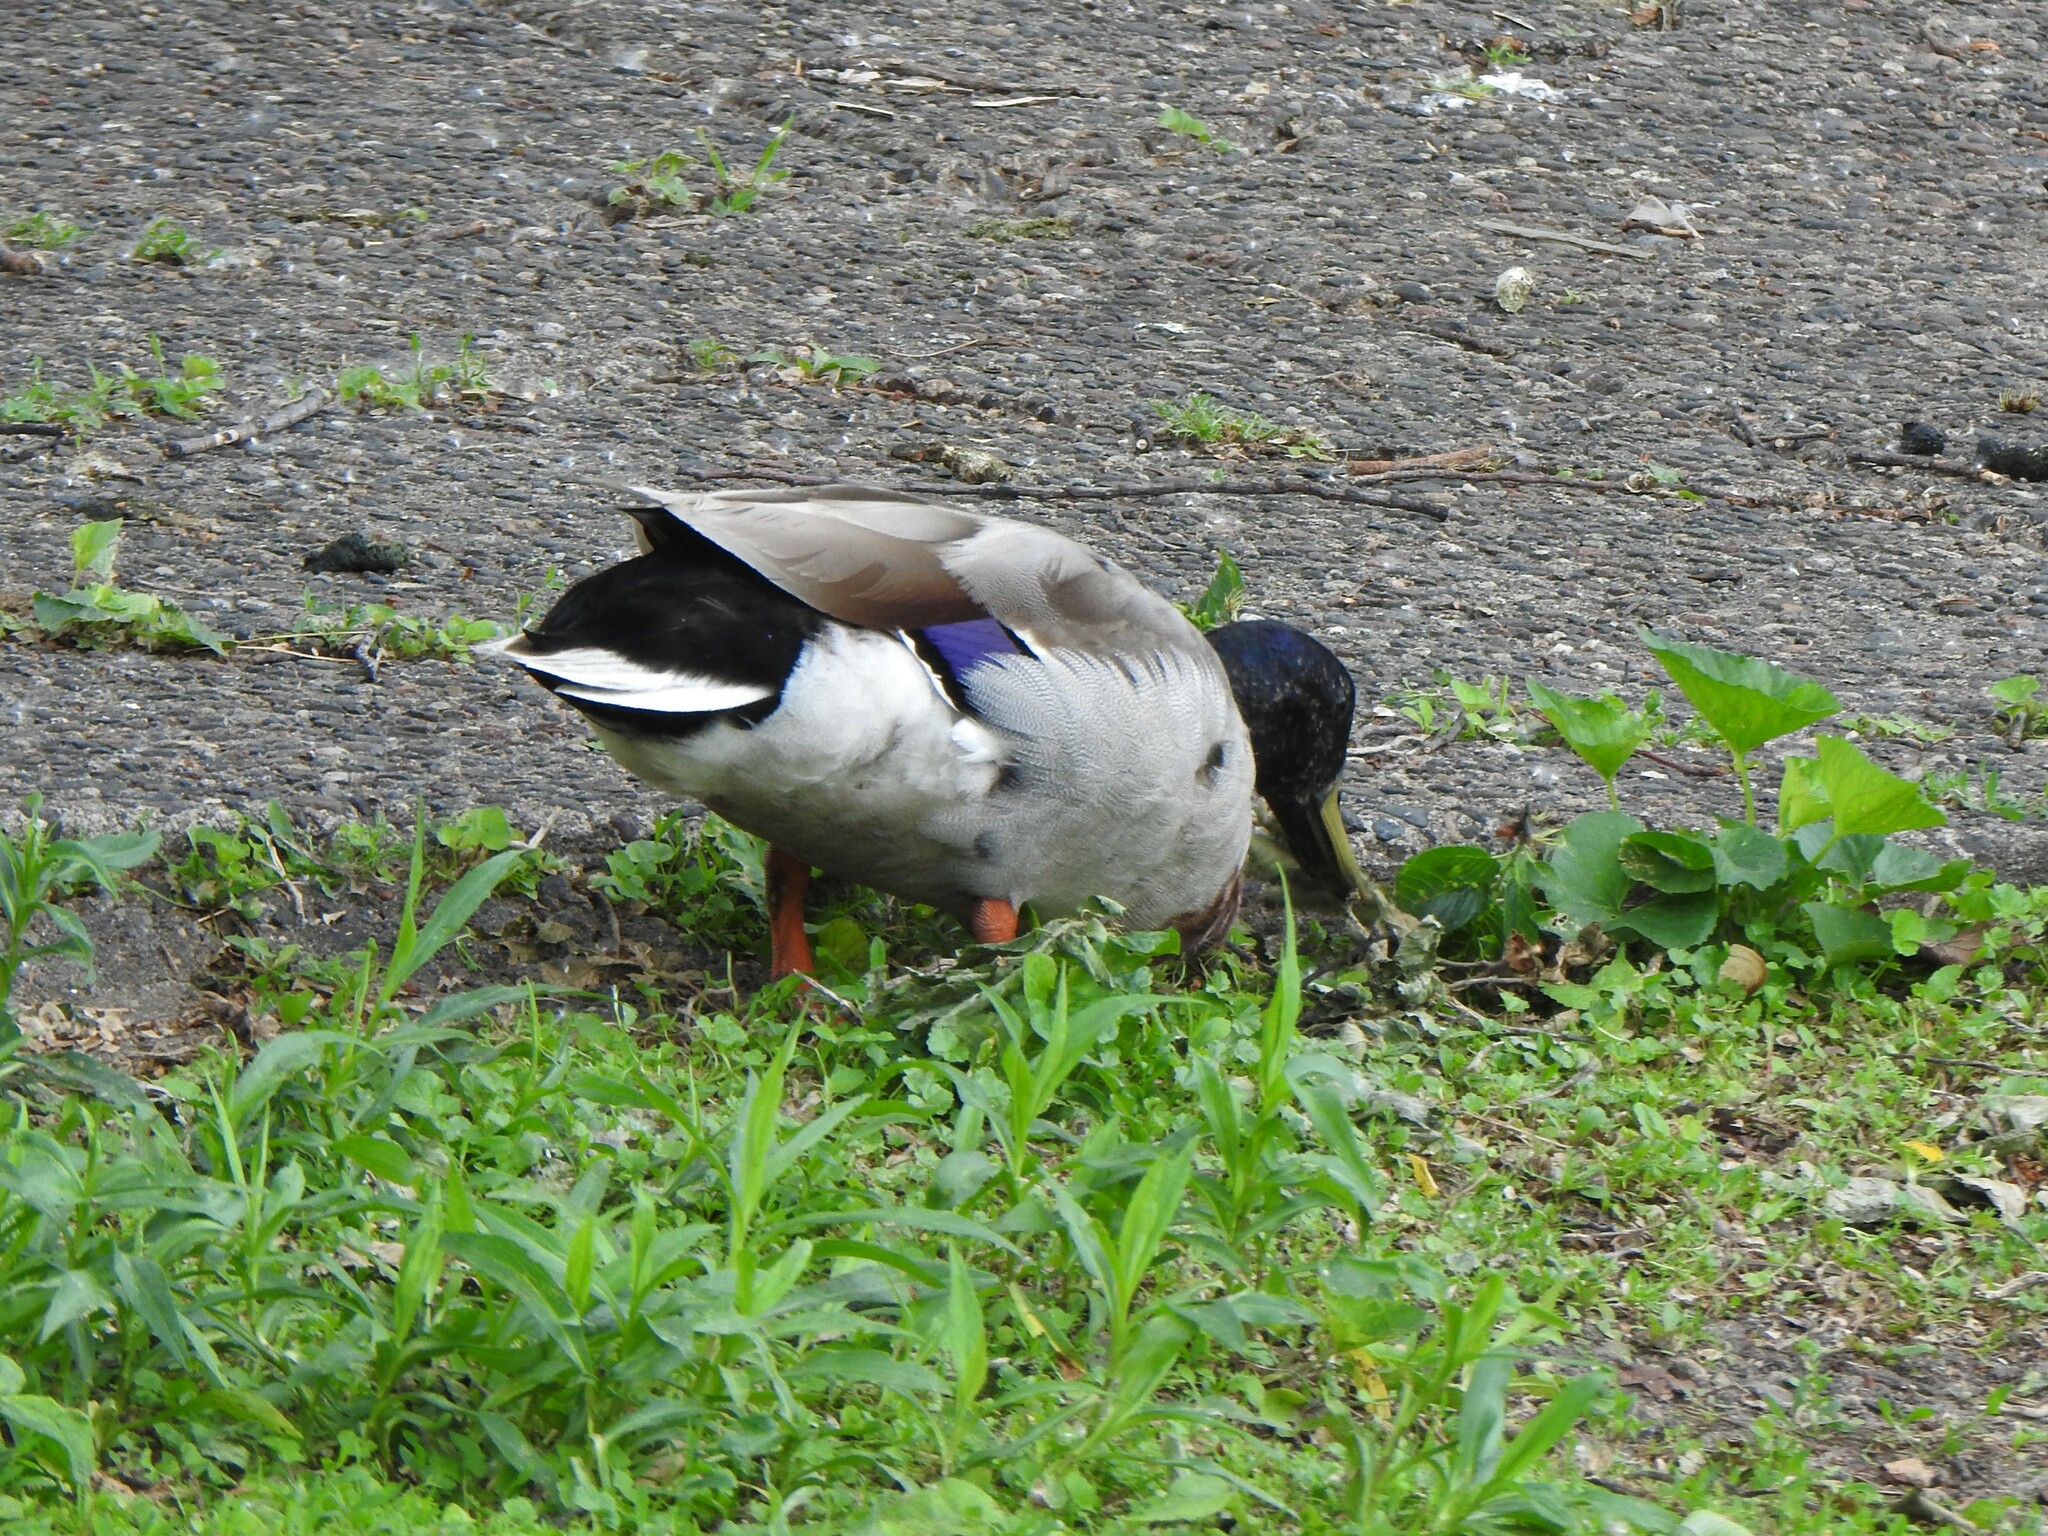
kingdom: Animalia
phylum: Chordata
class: Aves
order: Anseriformes
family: Anatidae
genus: Anas
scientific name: Anas platyrhynchos
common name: Mallard
